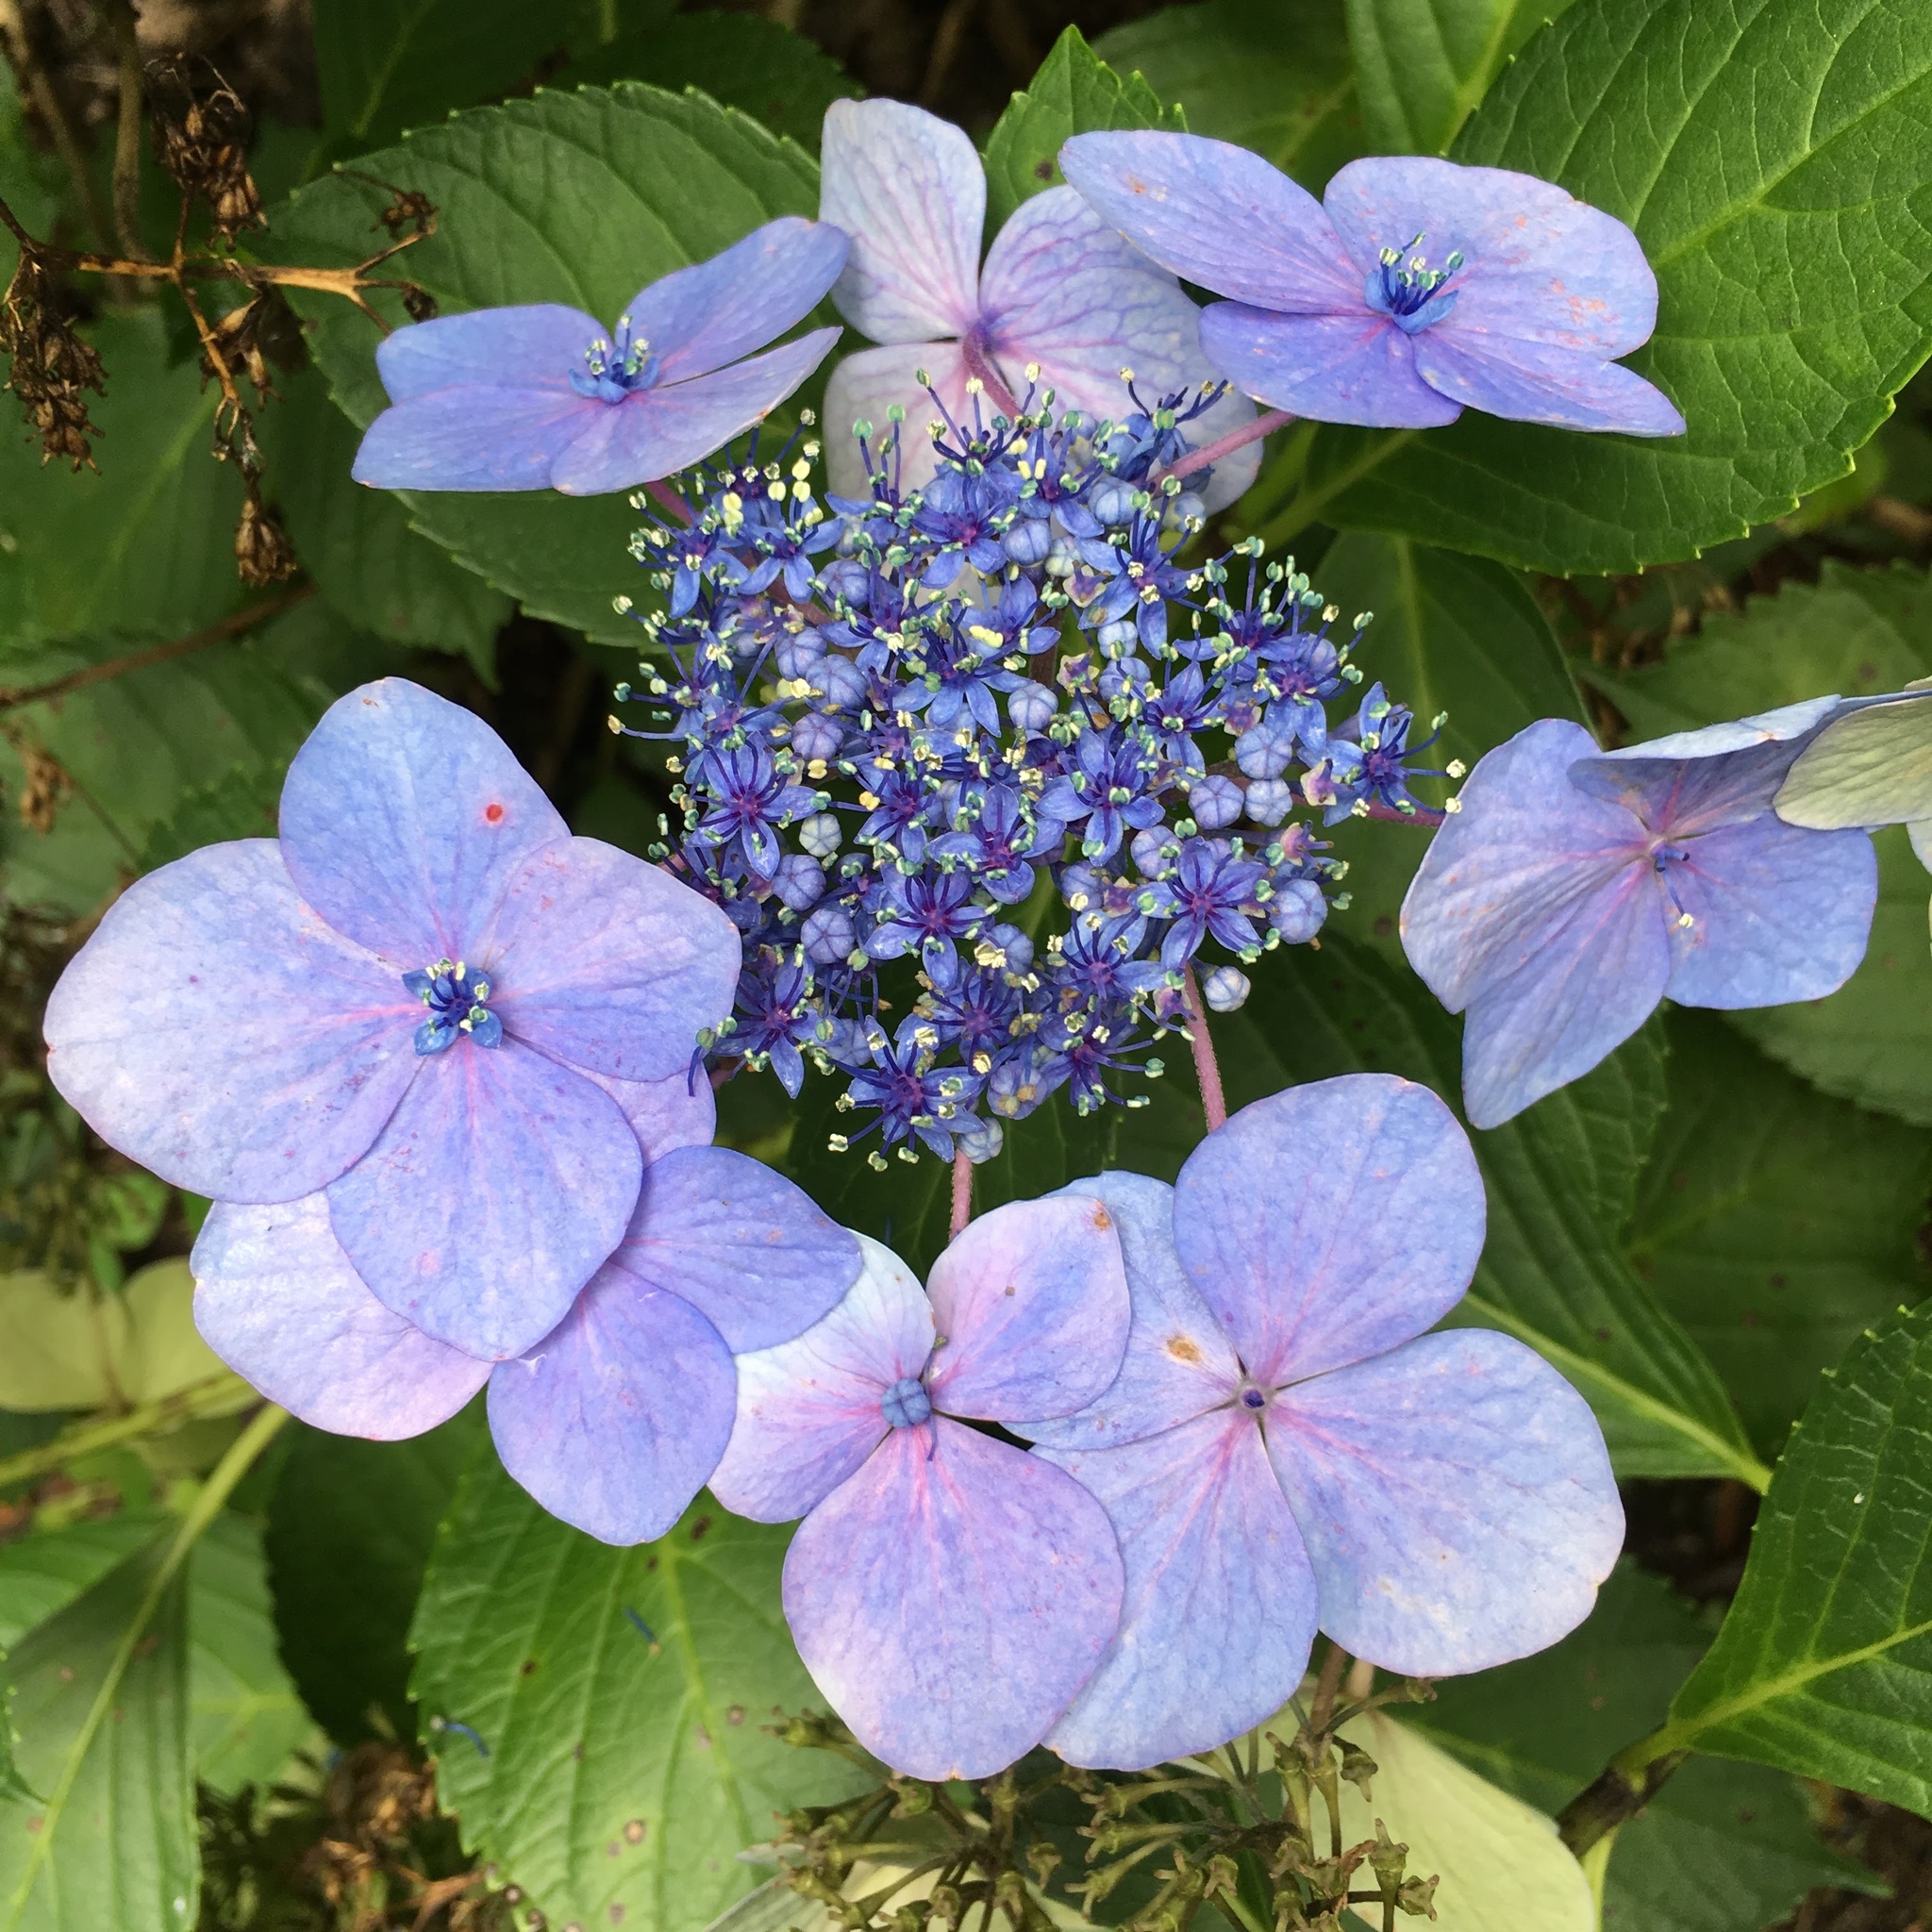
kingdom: Plantae
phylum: Tracheophyta
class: Magnoliopsida
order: Cornales
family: Hydrangeaceae
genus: Hydrangea
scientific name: Hydrangea macrophylla
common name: Hydrangea
